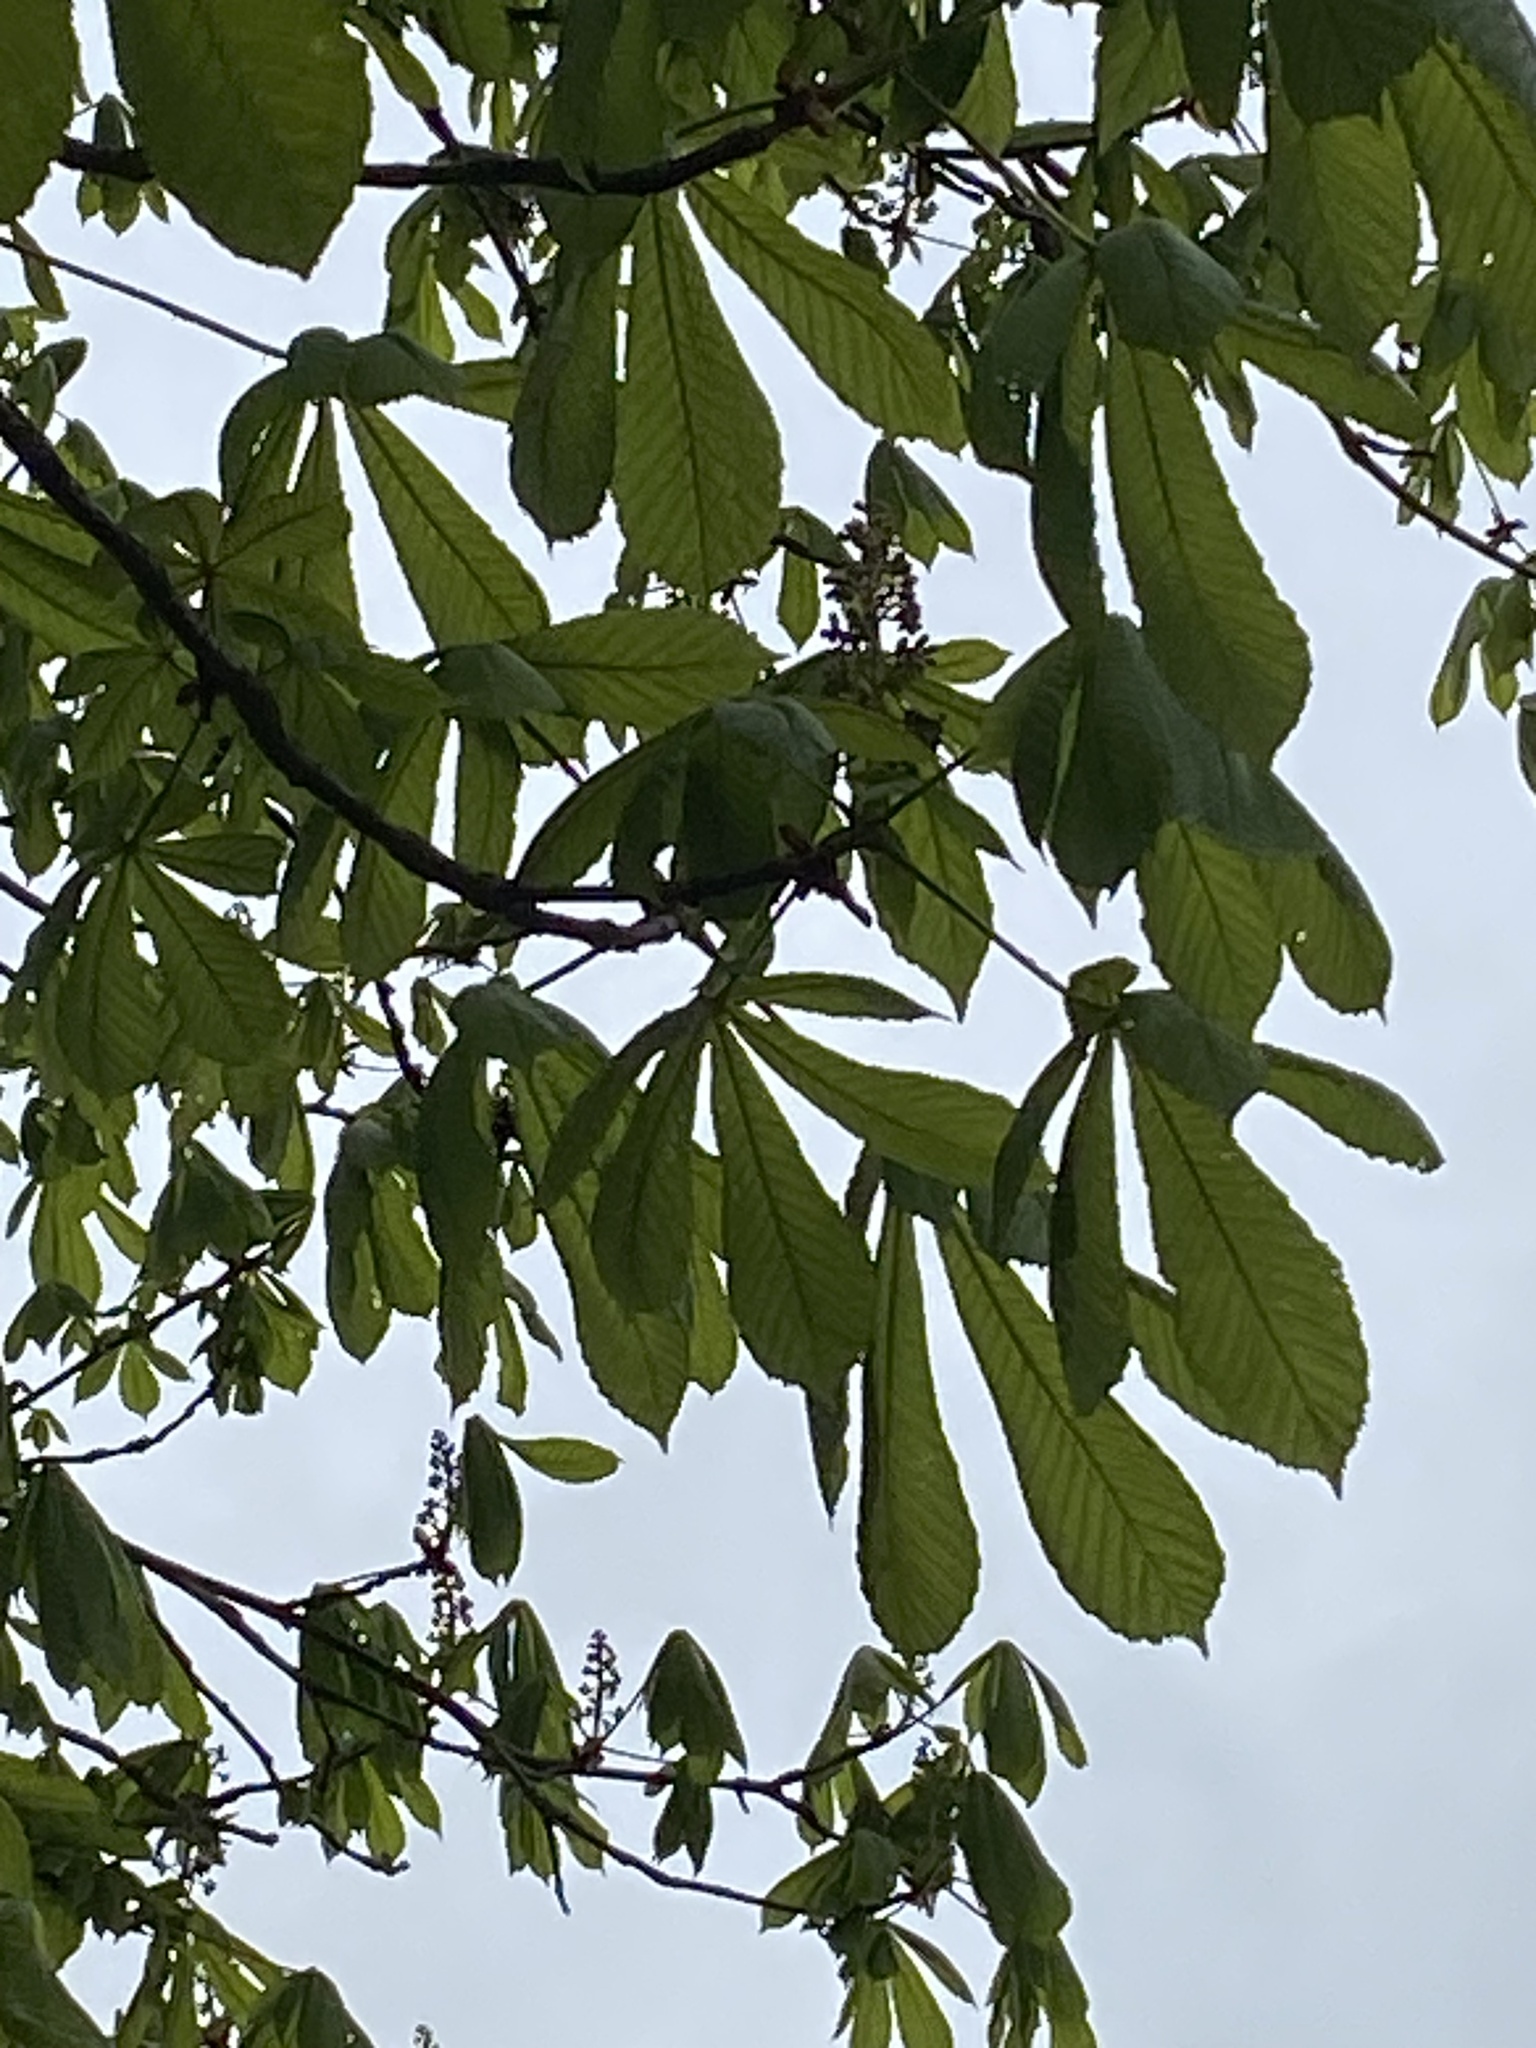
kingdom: Plantae
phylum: Tracheophyta
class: Magnoliopsida
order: Sapindales
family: Sapindaceae
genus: Aesculus
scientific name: Aesculus hippocastanum
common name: Horse-chestnut
